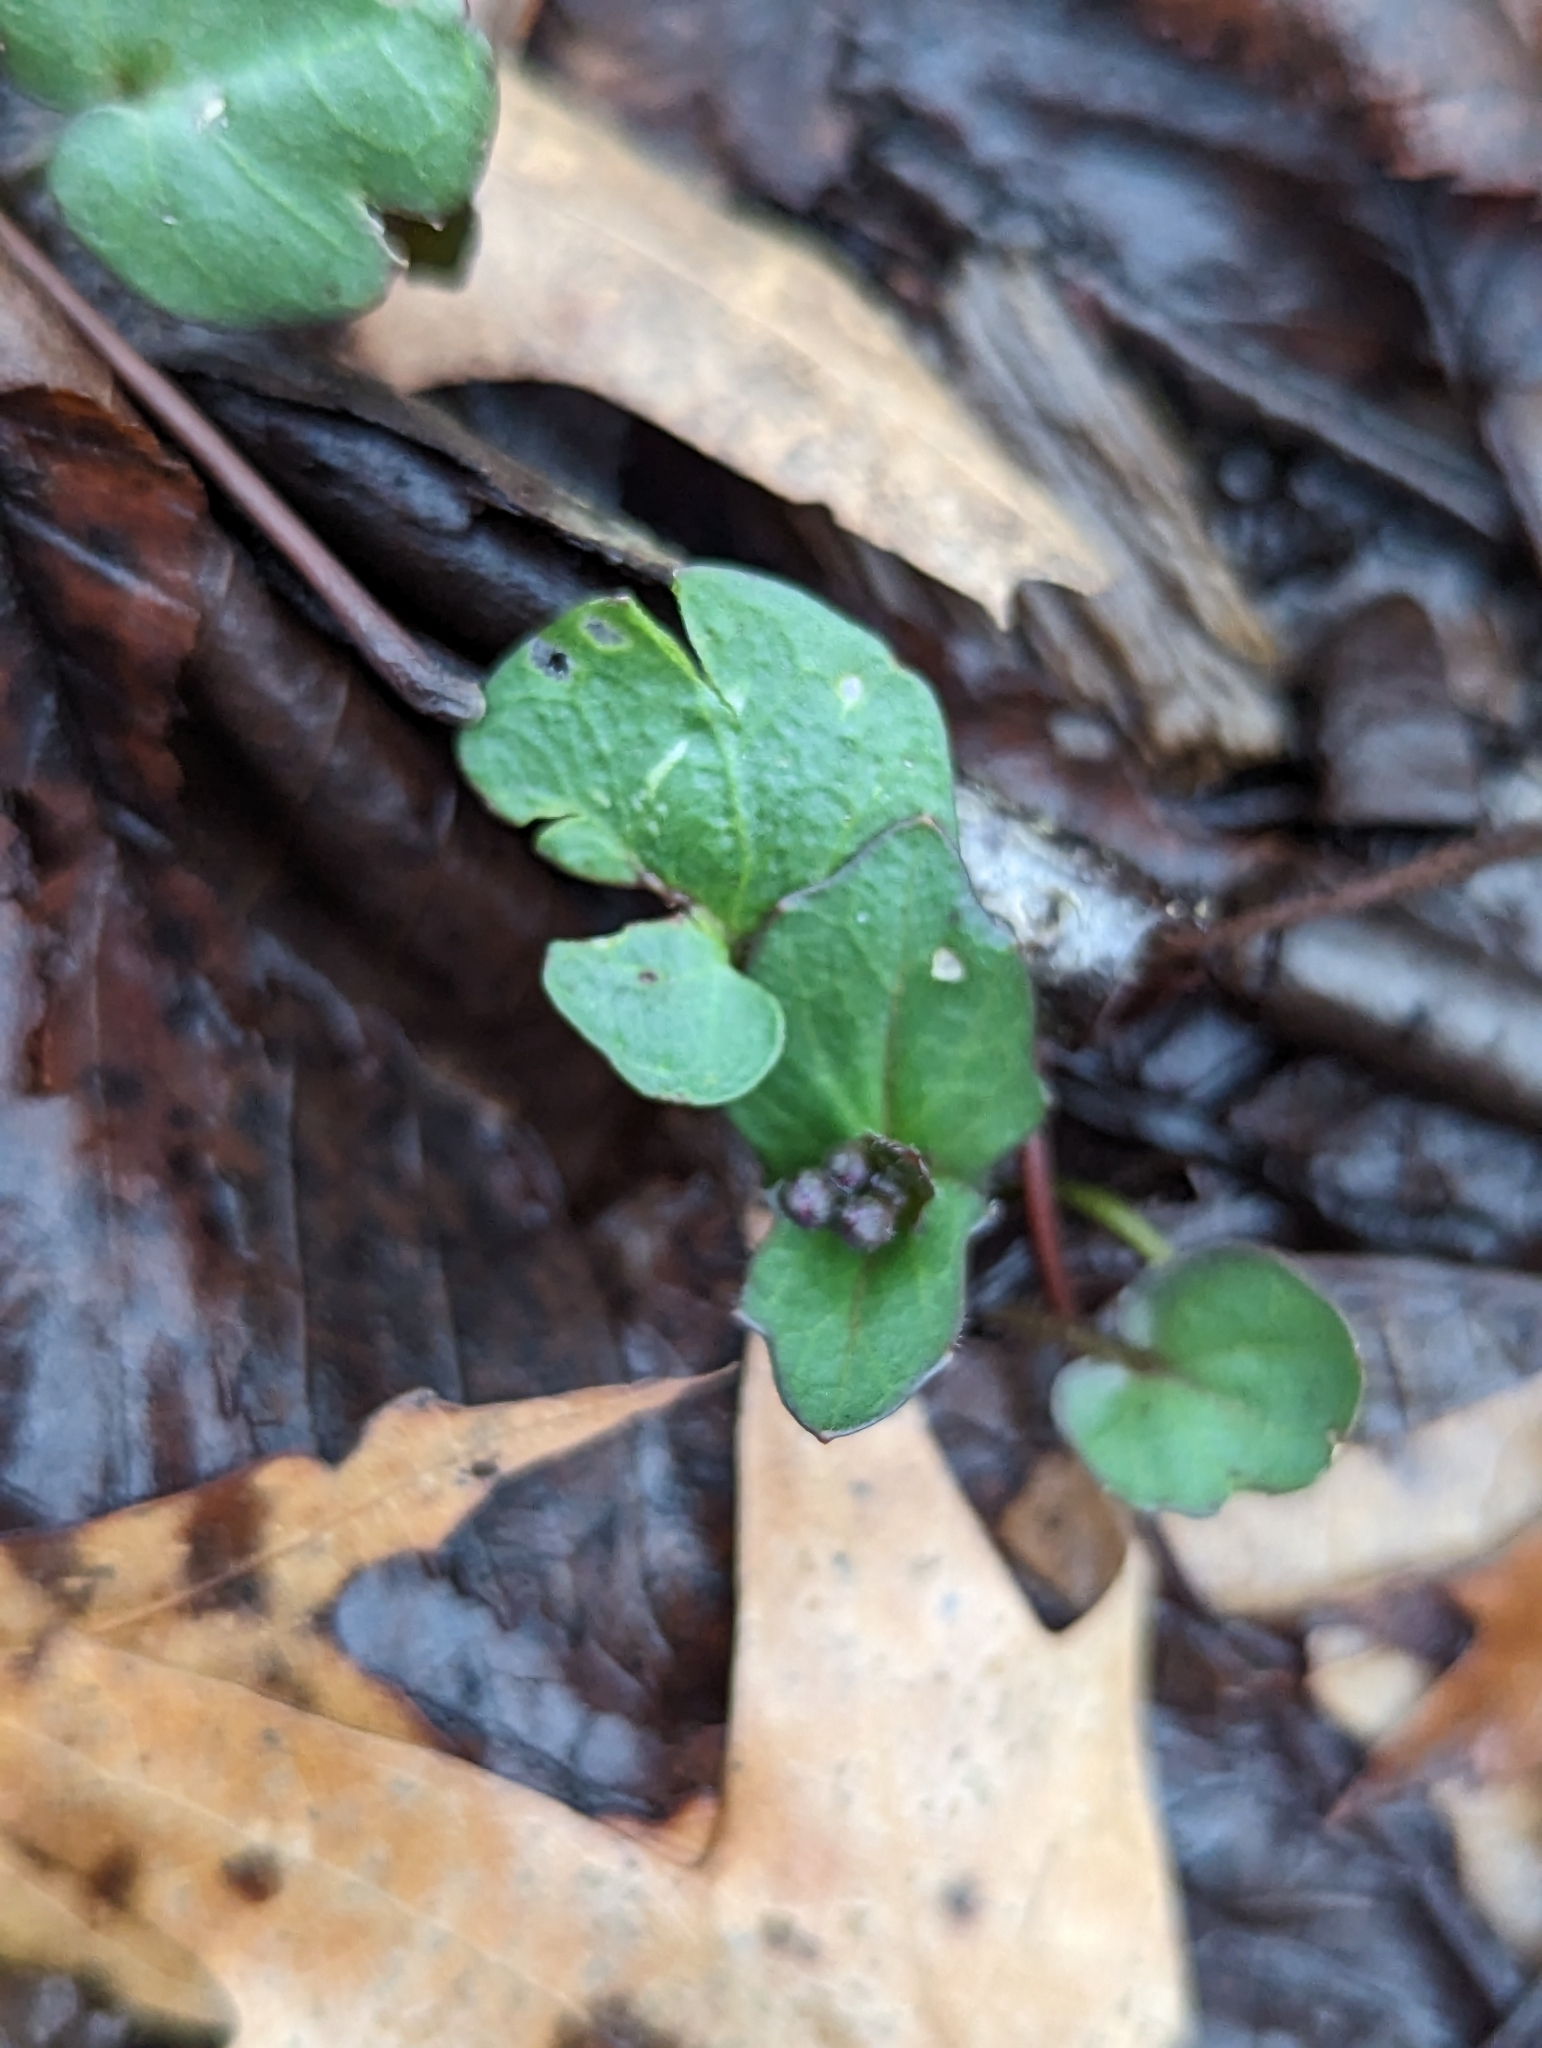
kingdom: Plantae
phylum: Tracheophyta
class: Magnoliopsida
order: Brassicales
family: Brassicaceae
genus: Cardamine
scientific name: Cardamine douglassii
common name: Purple cress
